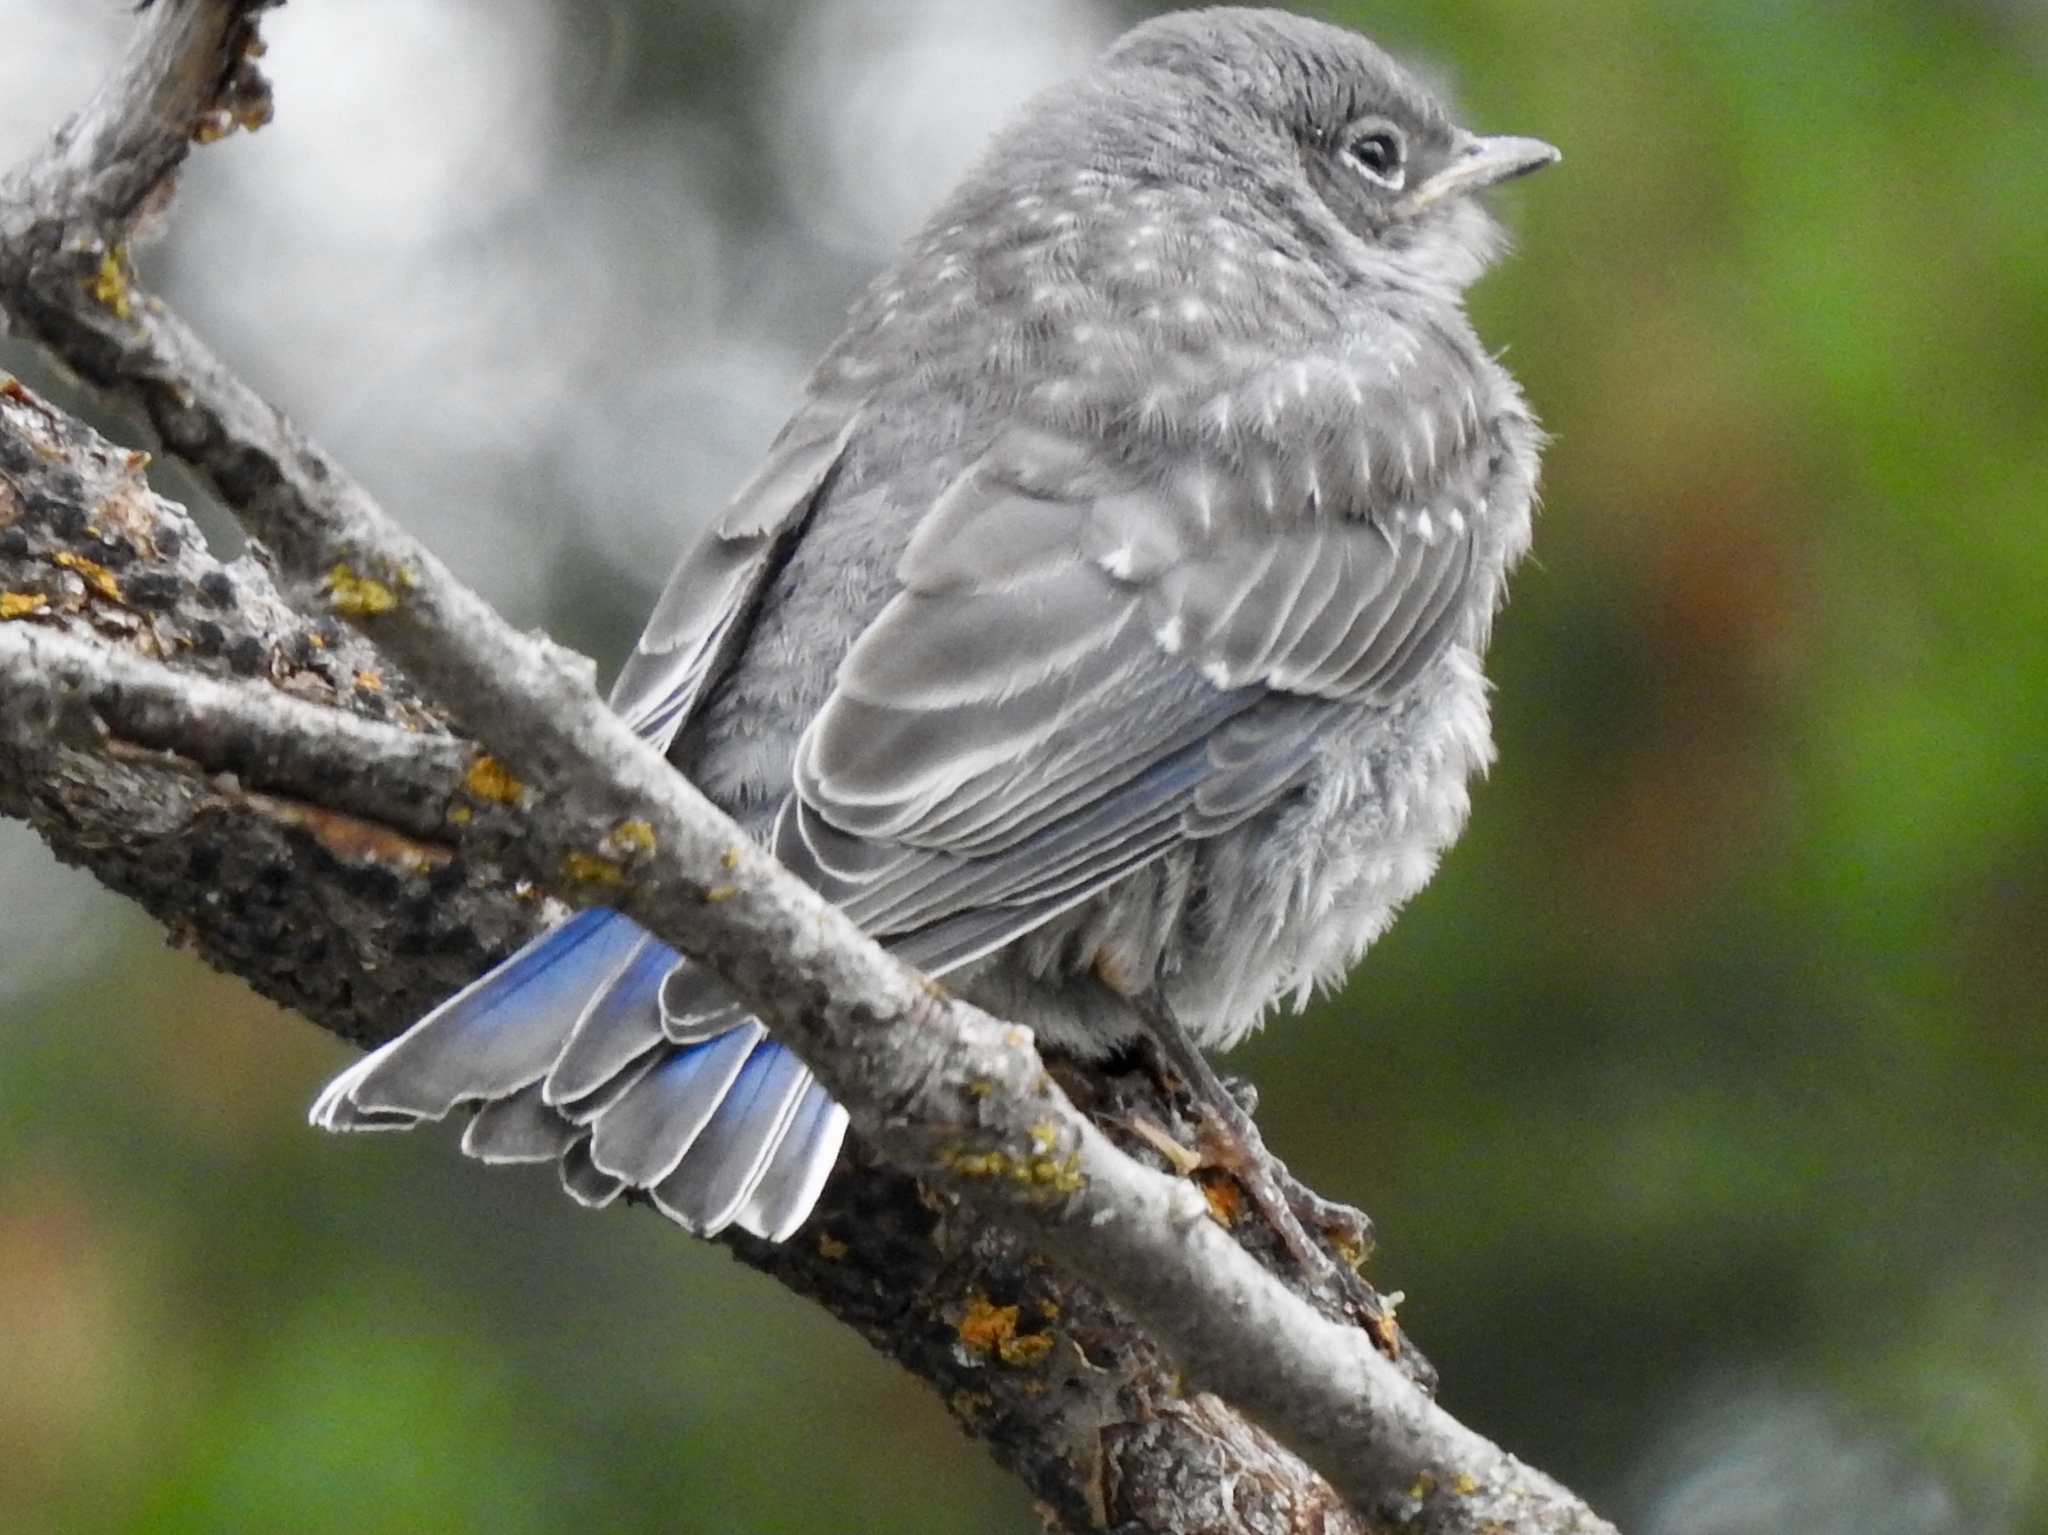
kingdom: Animalia
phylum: Chordata
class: Aves
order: Passeriformes
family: Turdidae
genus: Sialia
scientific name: Sialia currucoides
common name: Mountain bluebird
